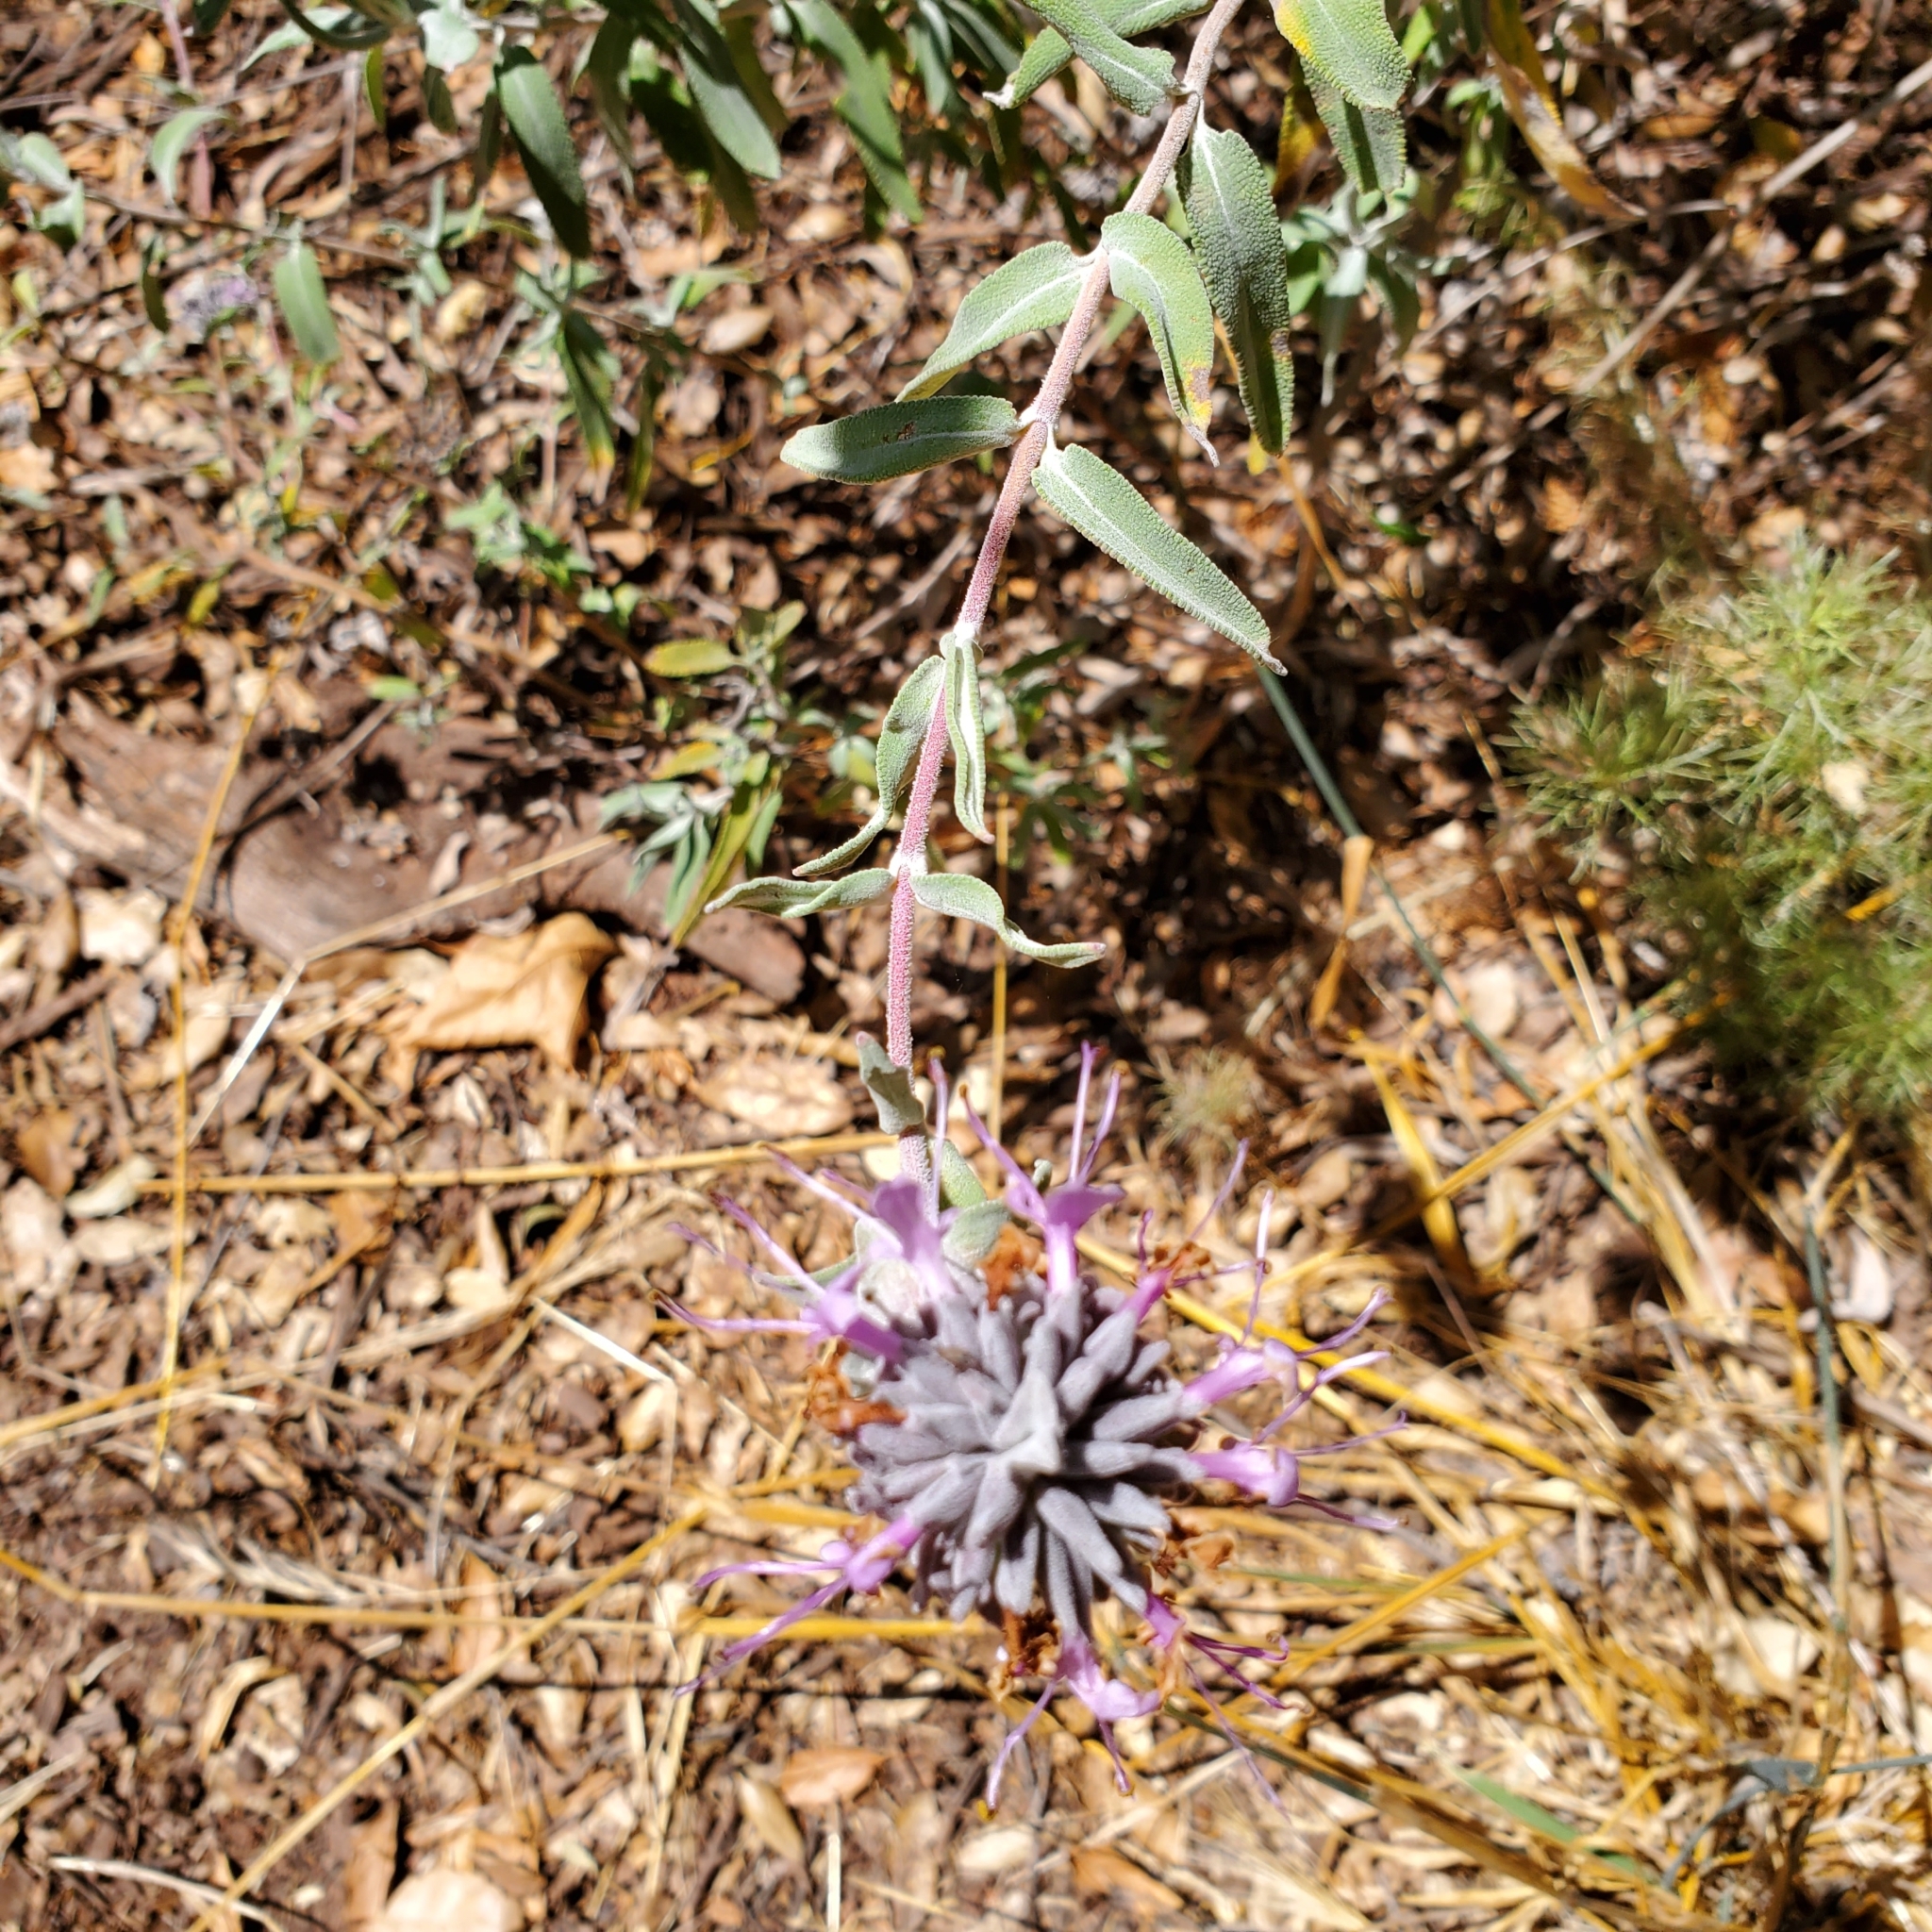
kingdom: Plantae
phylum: Tracheophyta
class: Magnoliopsida
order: Lamiales
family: Lamiaceae
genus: Salvia
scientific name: Salvia leucophylla
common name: Purple sage
